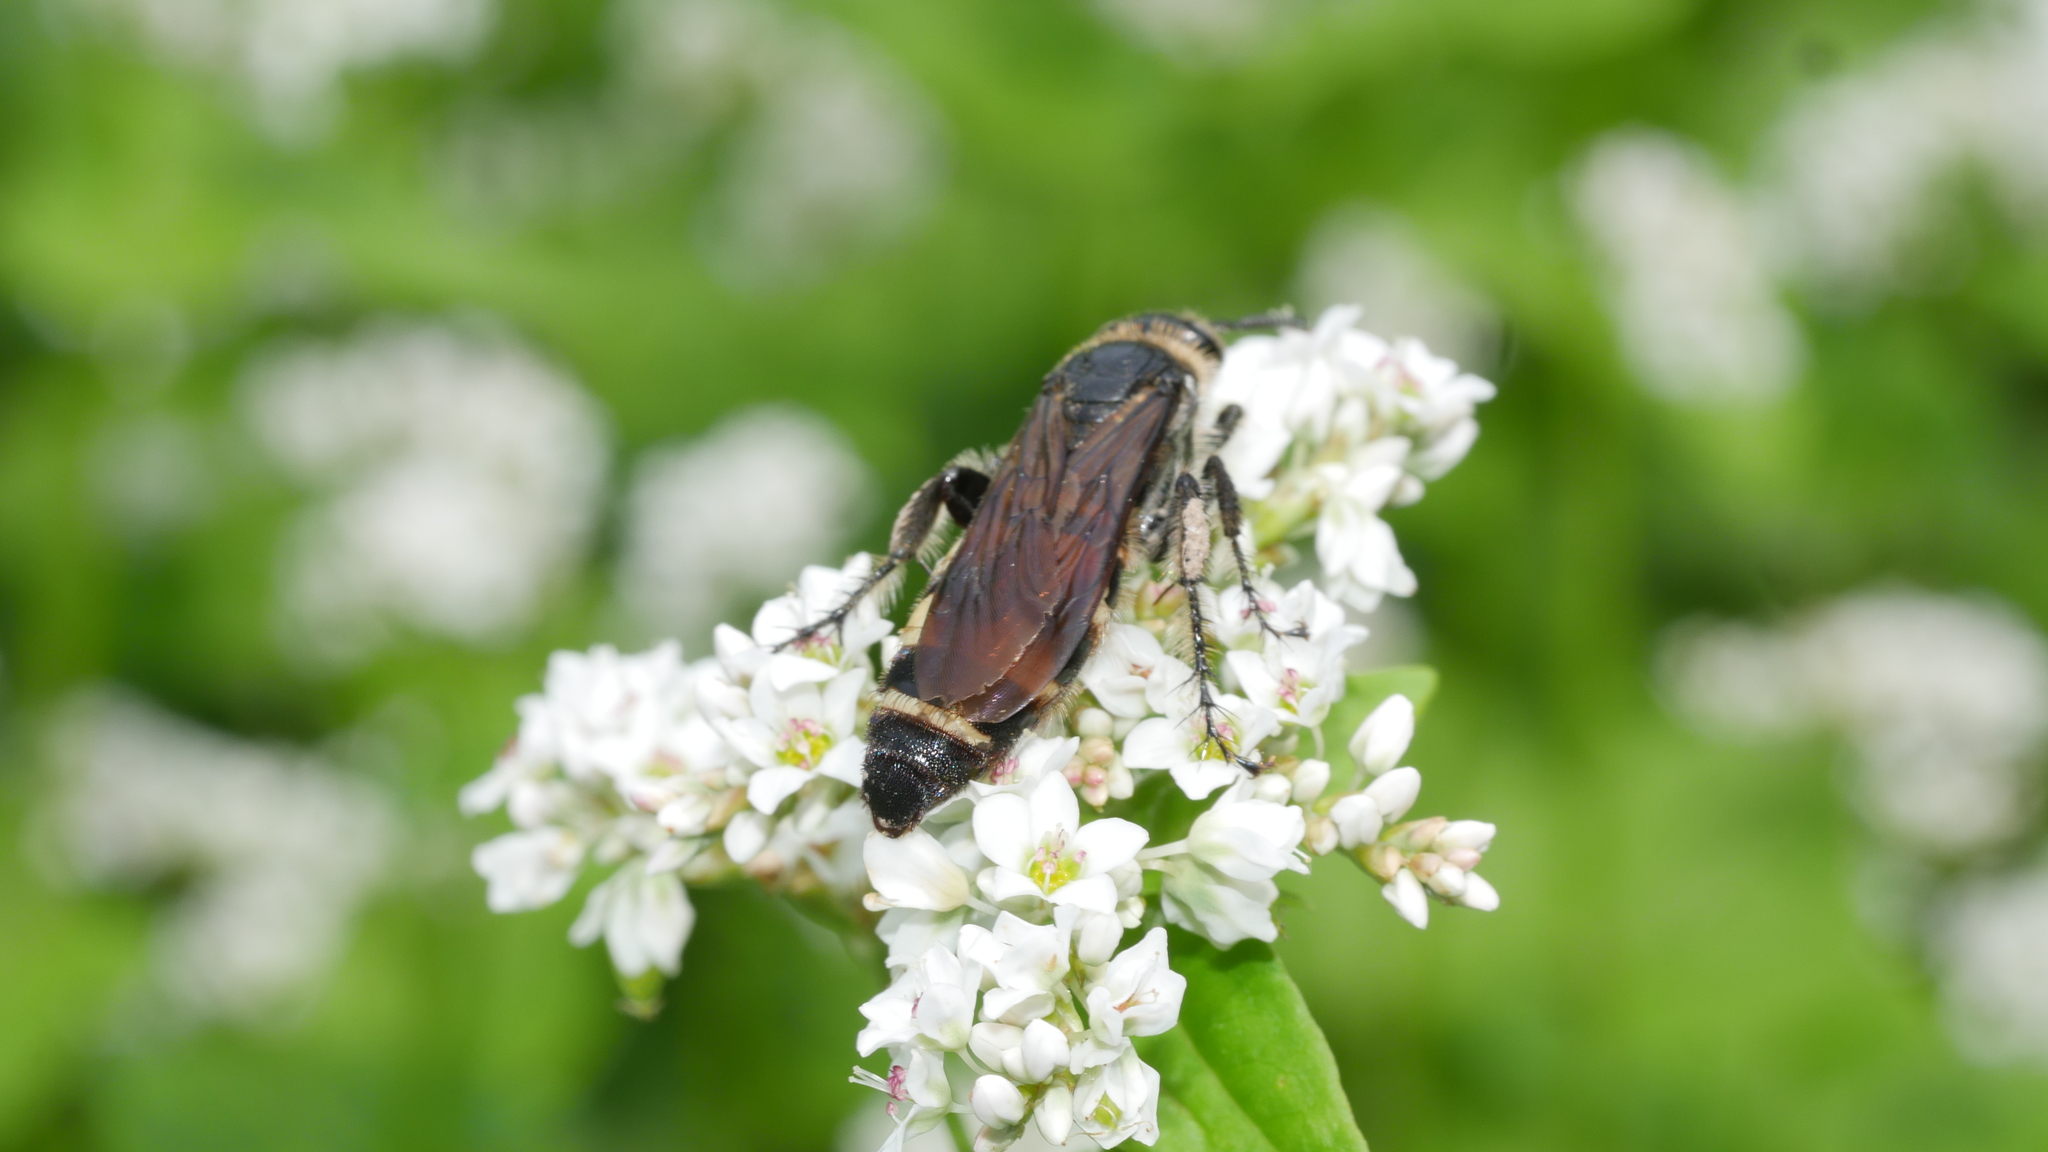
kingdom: Animalia
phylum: Arthropoda
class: Insecta
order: Hymenoptera
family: Scoliidae
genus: Dielis
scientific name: Dielis
